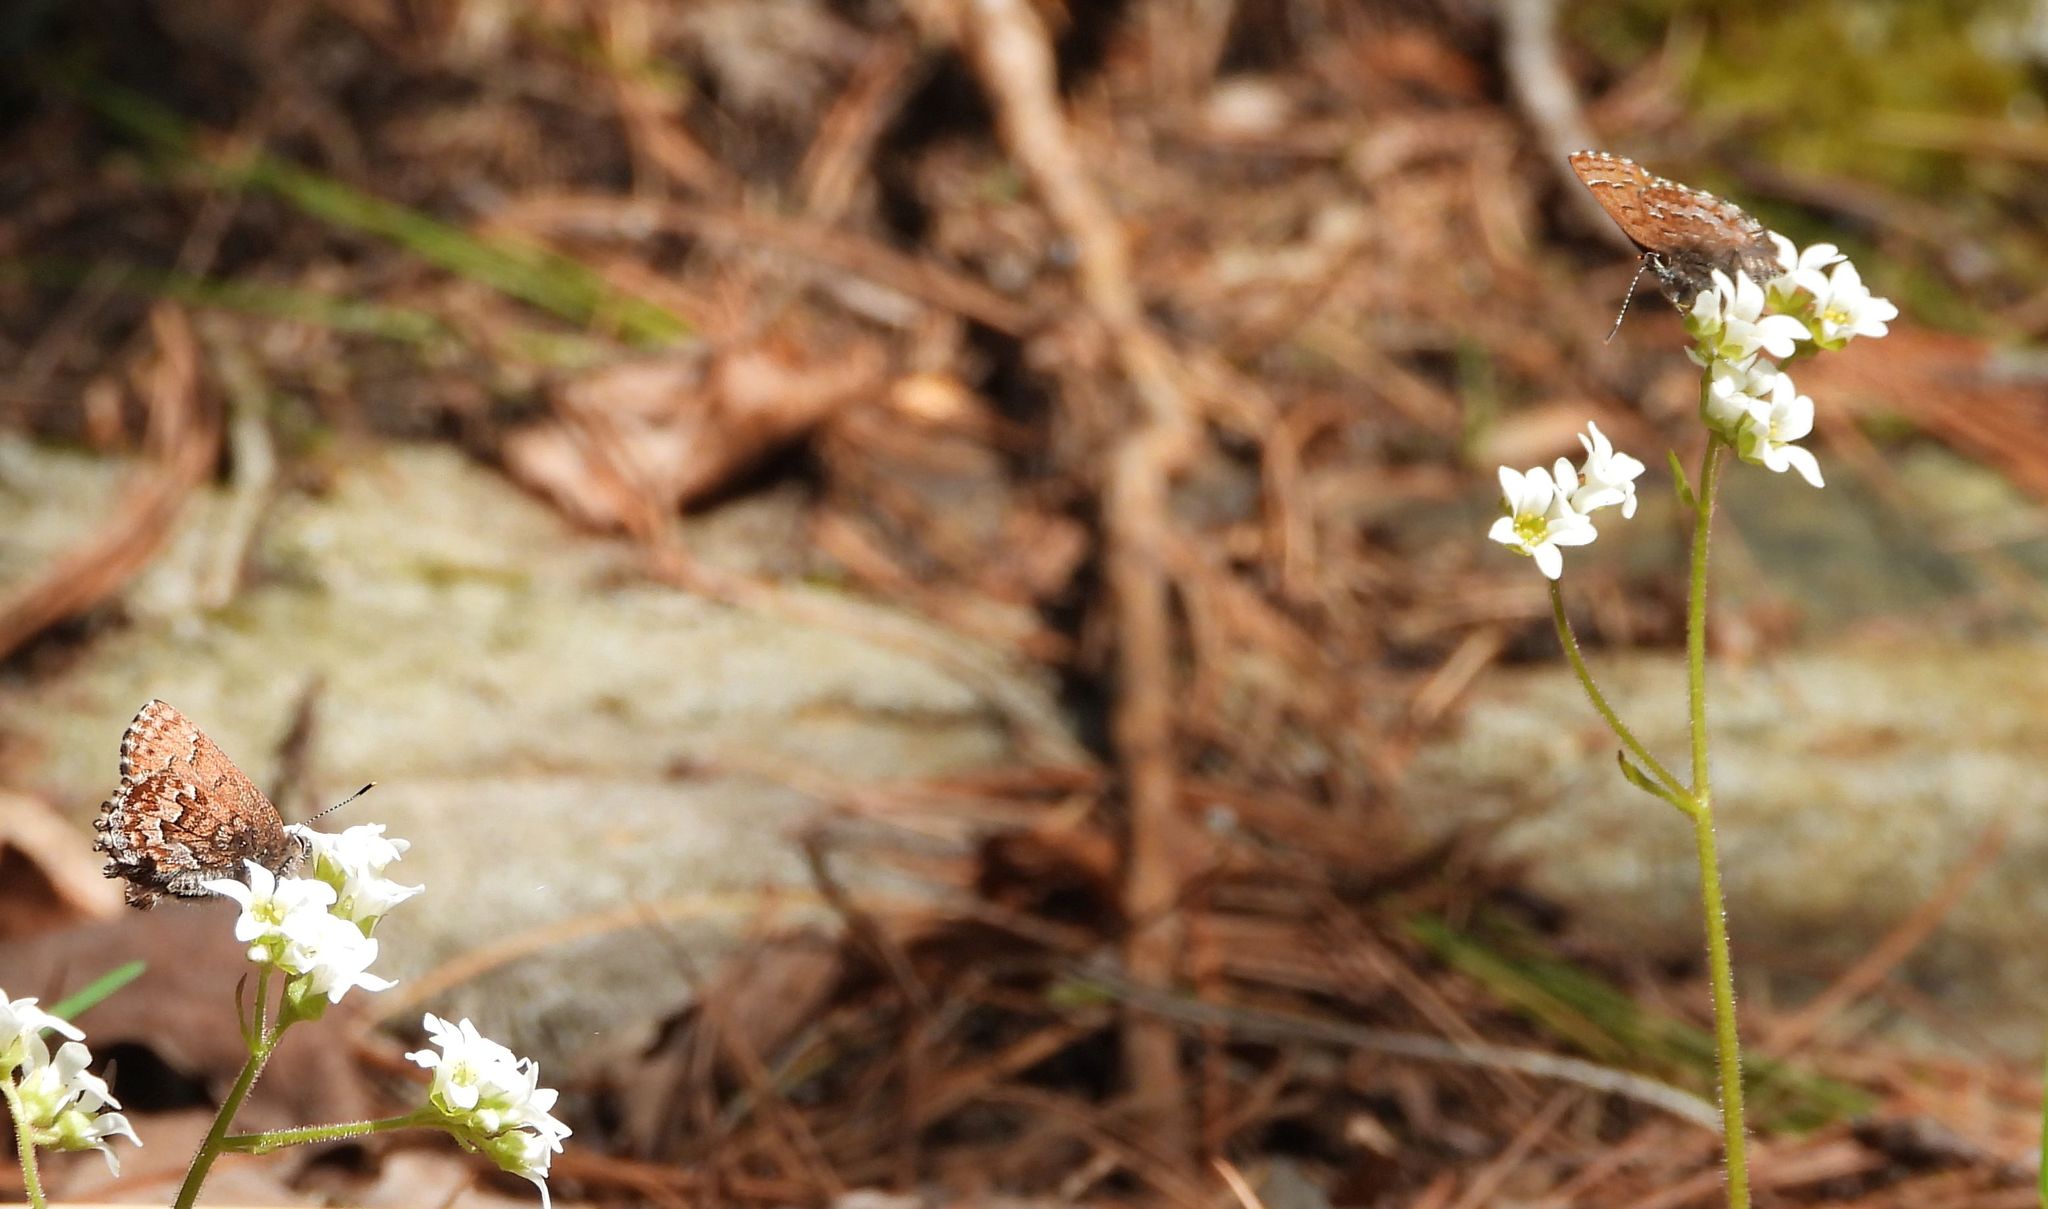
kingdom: Animalia
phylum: Arthropoda
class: Insecta
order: Lepidoptera
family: Lycaenidae
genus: Incisalia
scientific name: Incisalia niphon
